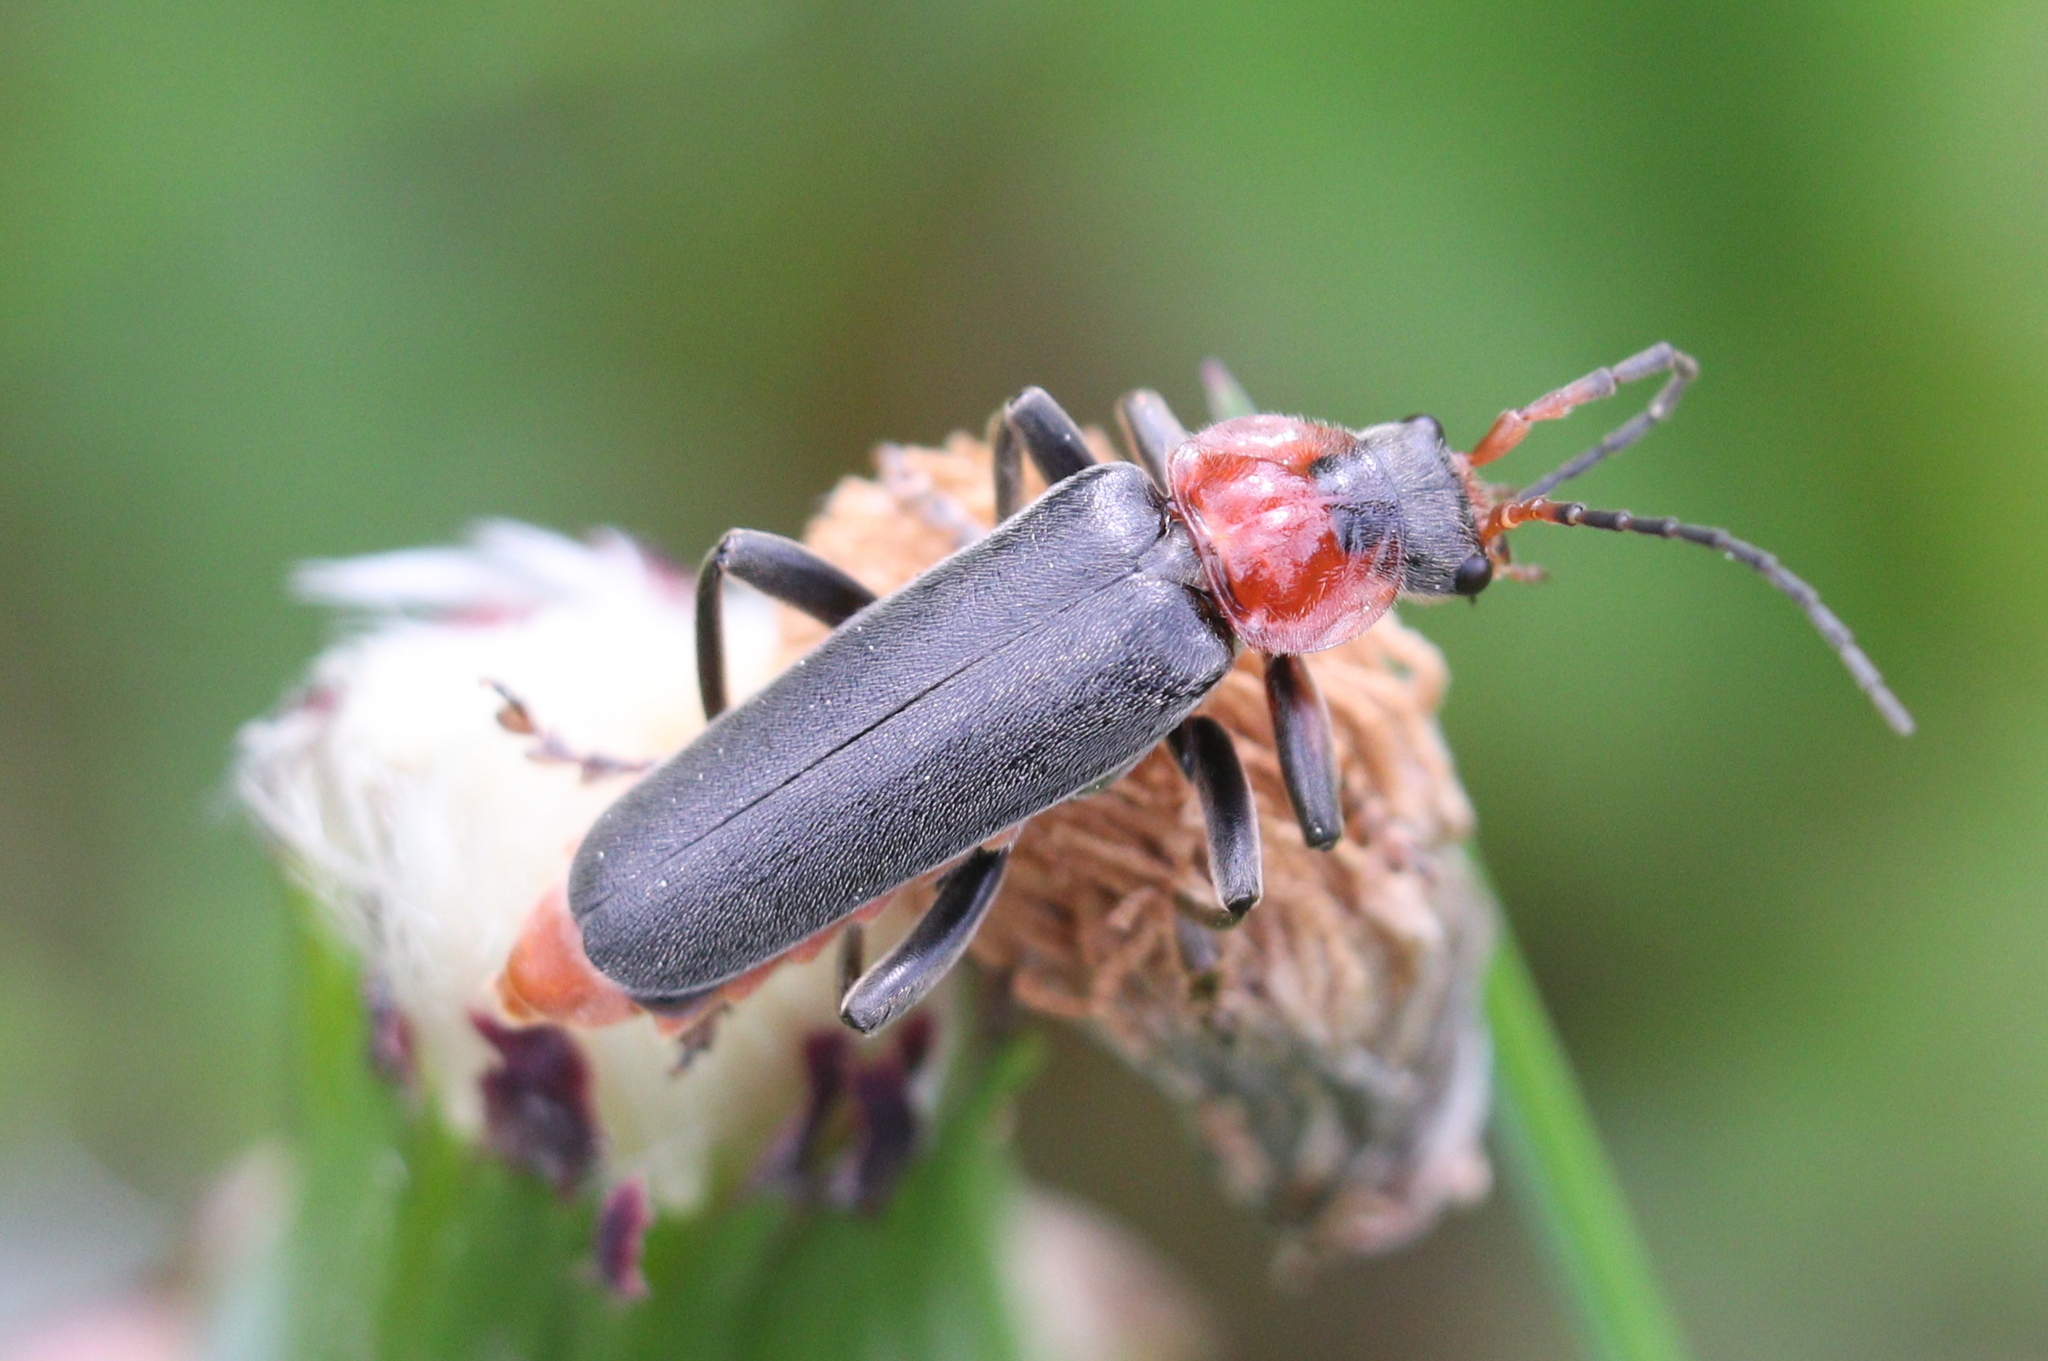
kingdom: Animalia
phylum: Arthropoda
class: Insecta
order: Coleoptera
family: Cantharidae
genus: Cantharis
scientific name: Cantharis fusca
